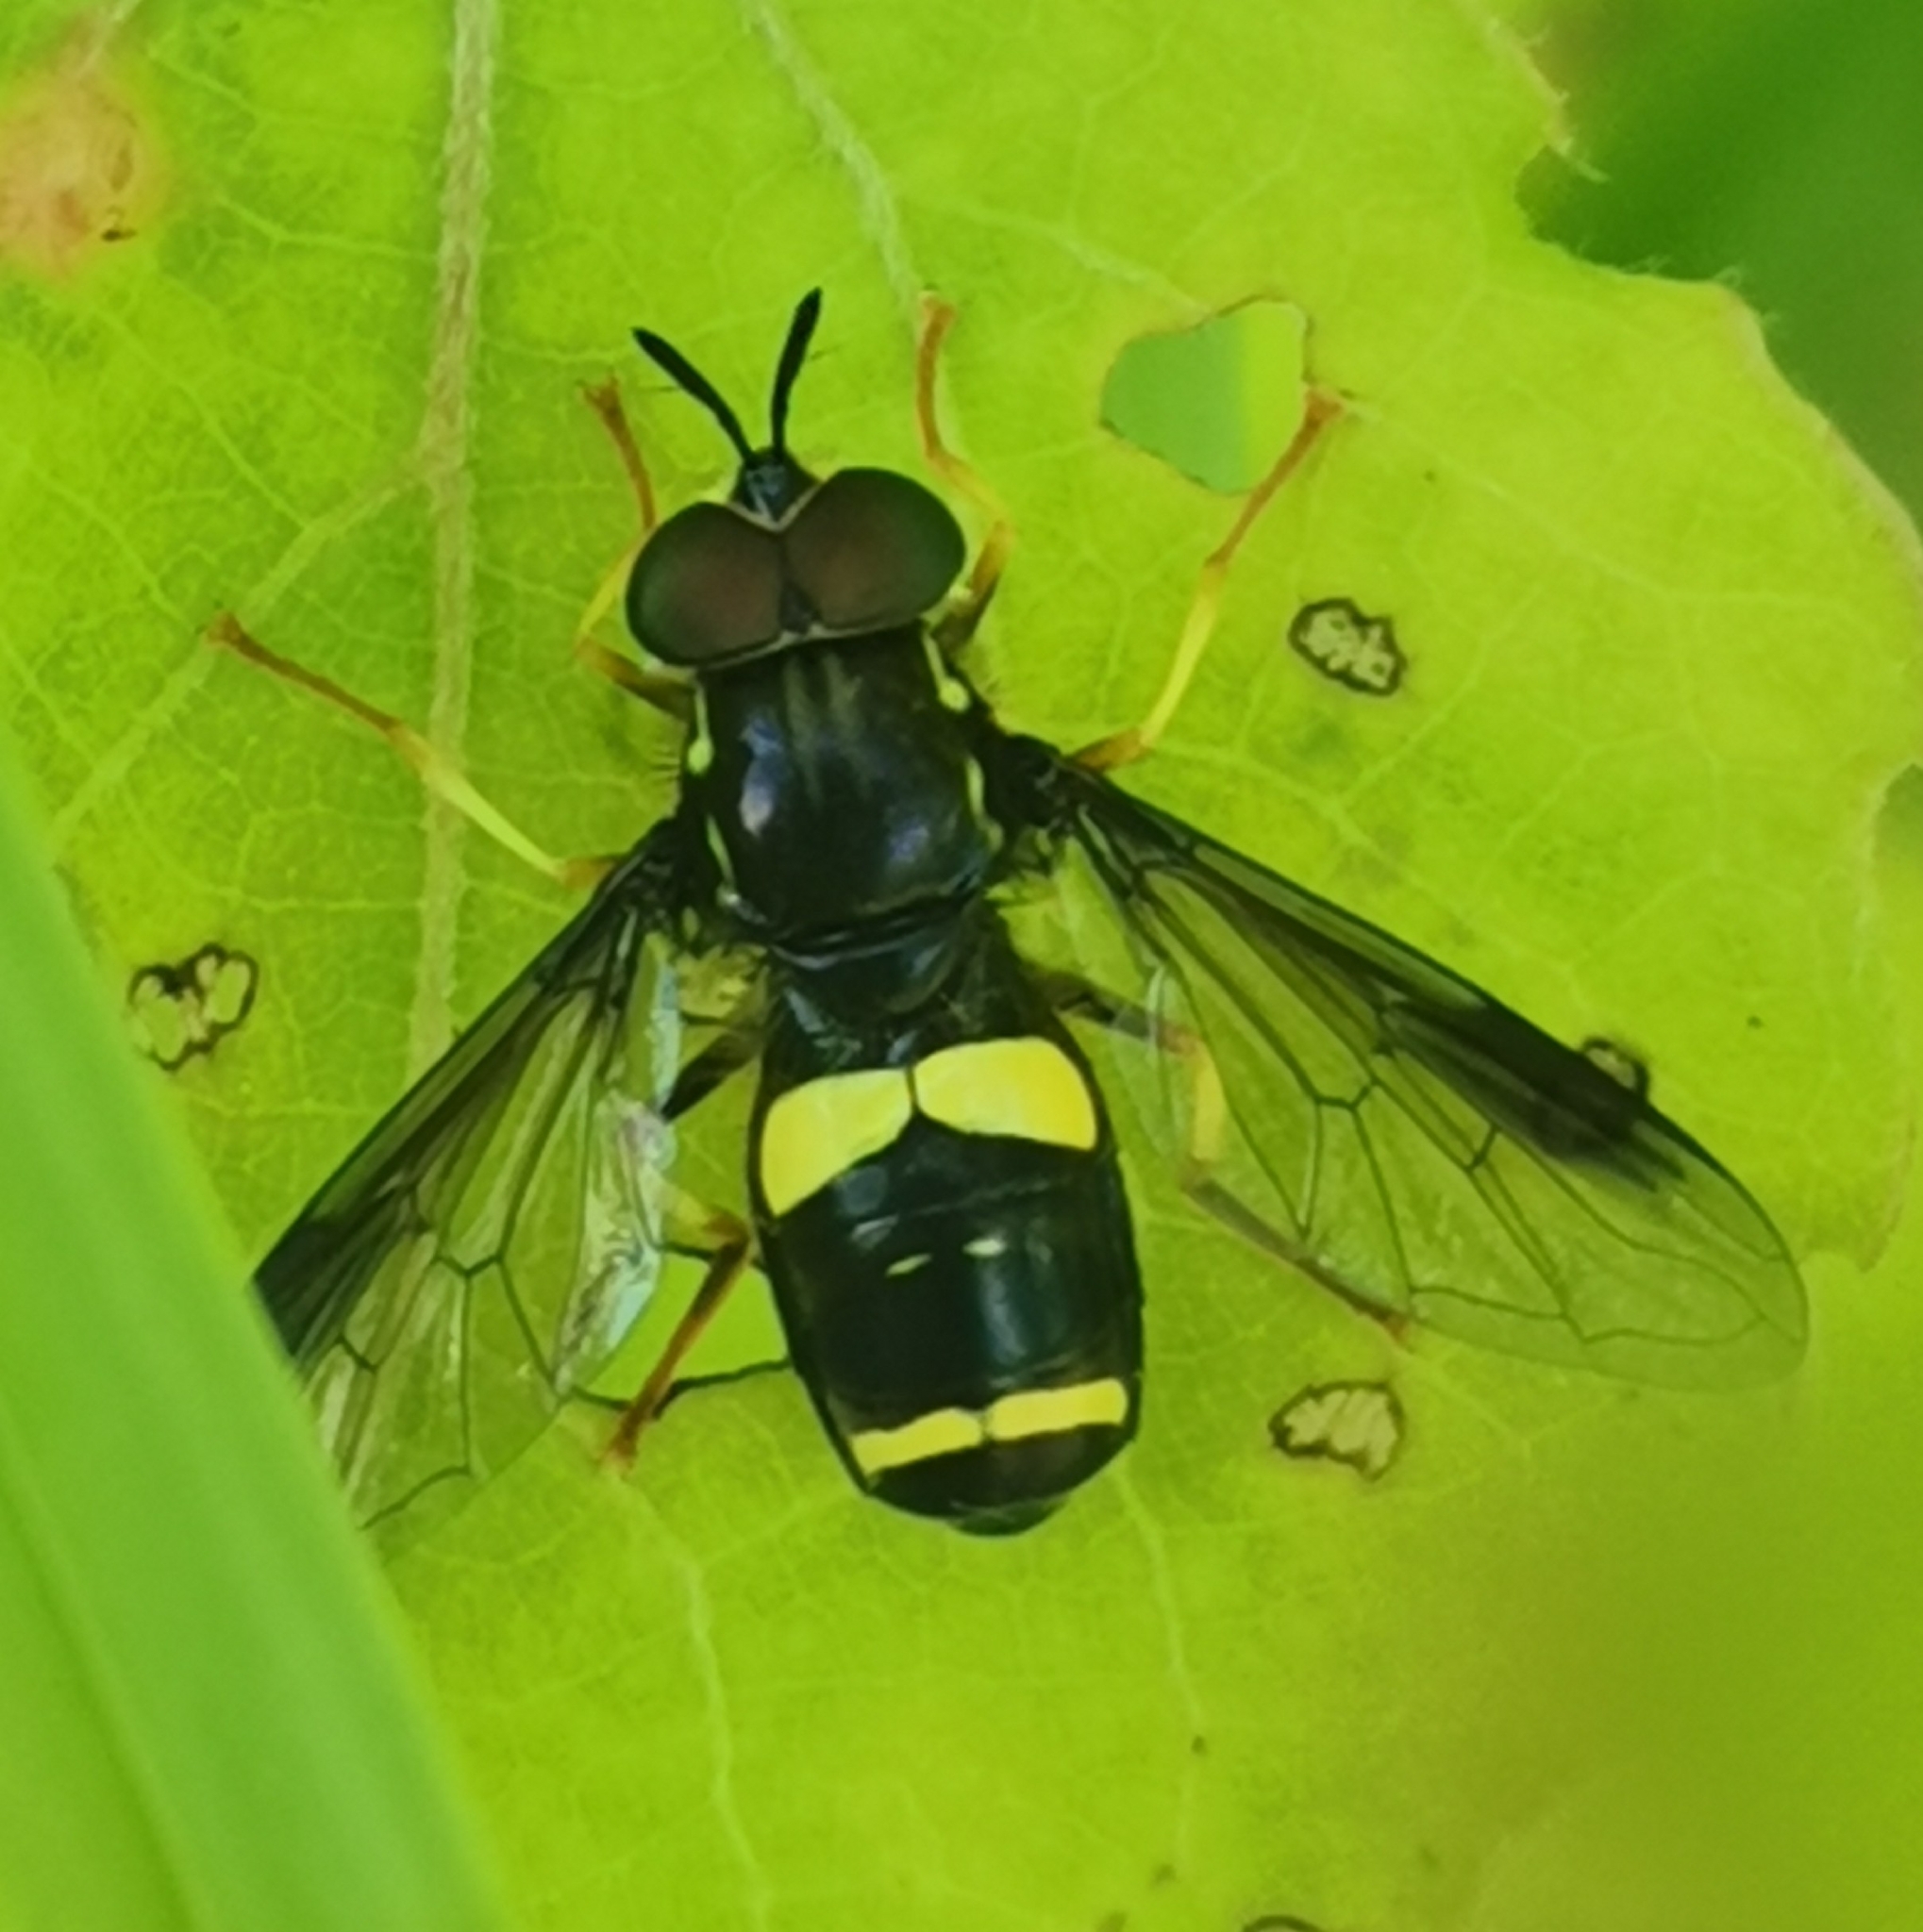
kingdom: Animalia
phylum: Arthropoda
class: Insecta
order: Diptera
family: Syrphidae
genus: Chrysotoxum
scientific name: Chrysotoxum bicincta
